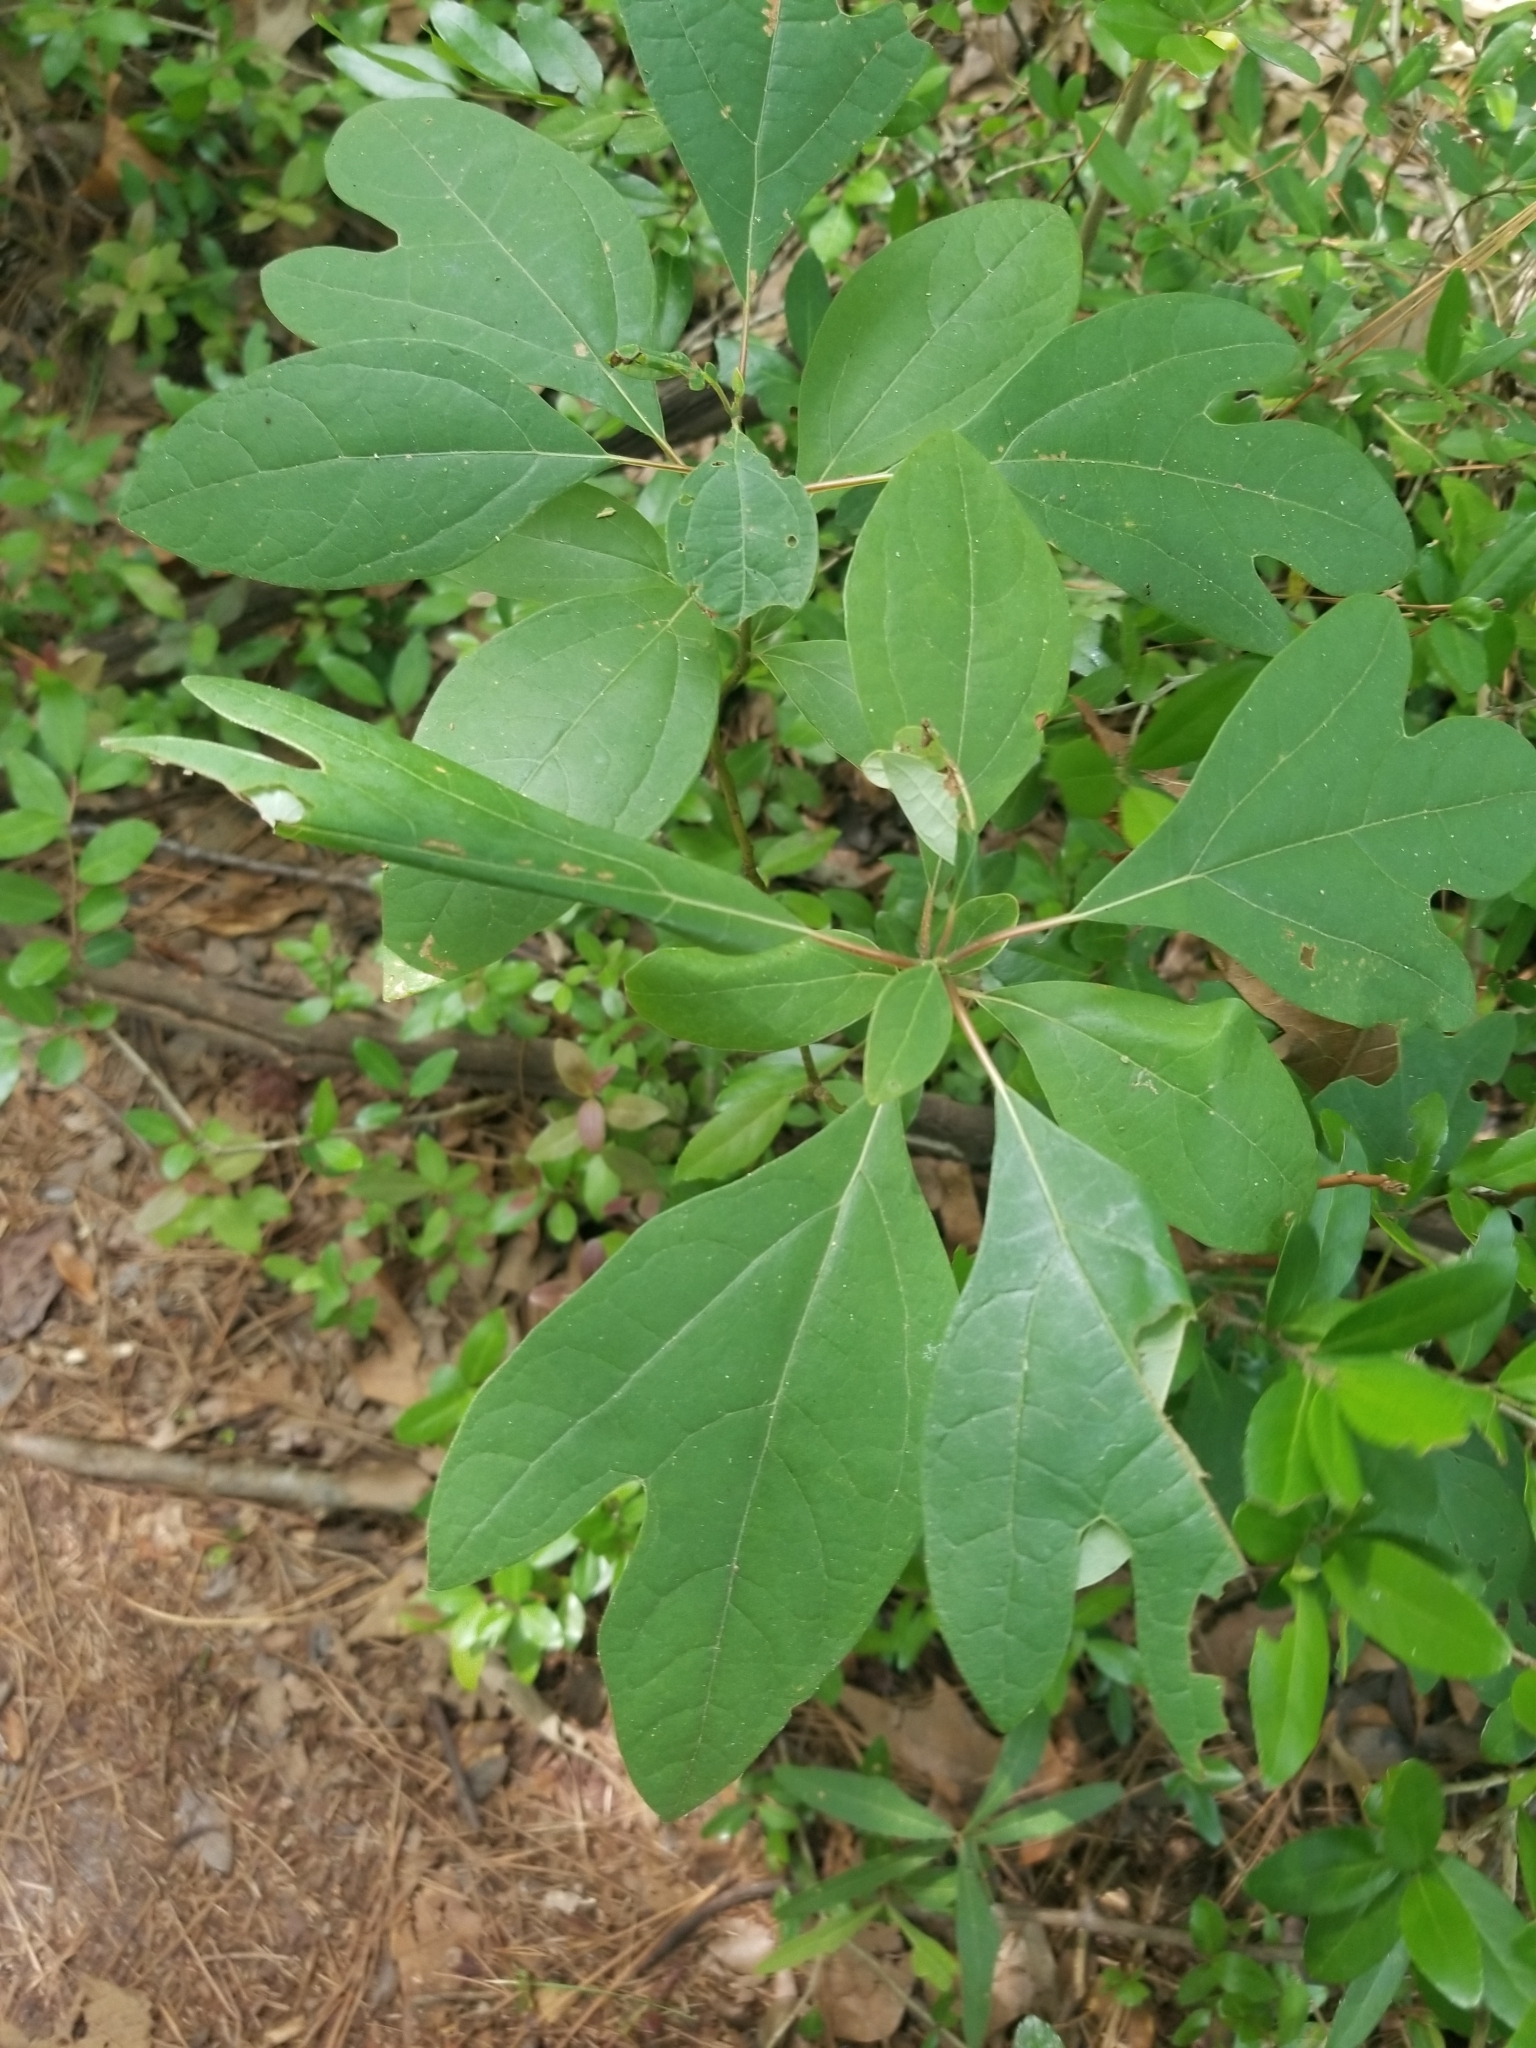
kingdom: Plantae
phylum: Tracheophyta
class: Magnoliopsida
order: Laurales
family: Lauraceae
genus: Sassafras
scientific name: Sassafras albidum
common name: Sassafras
